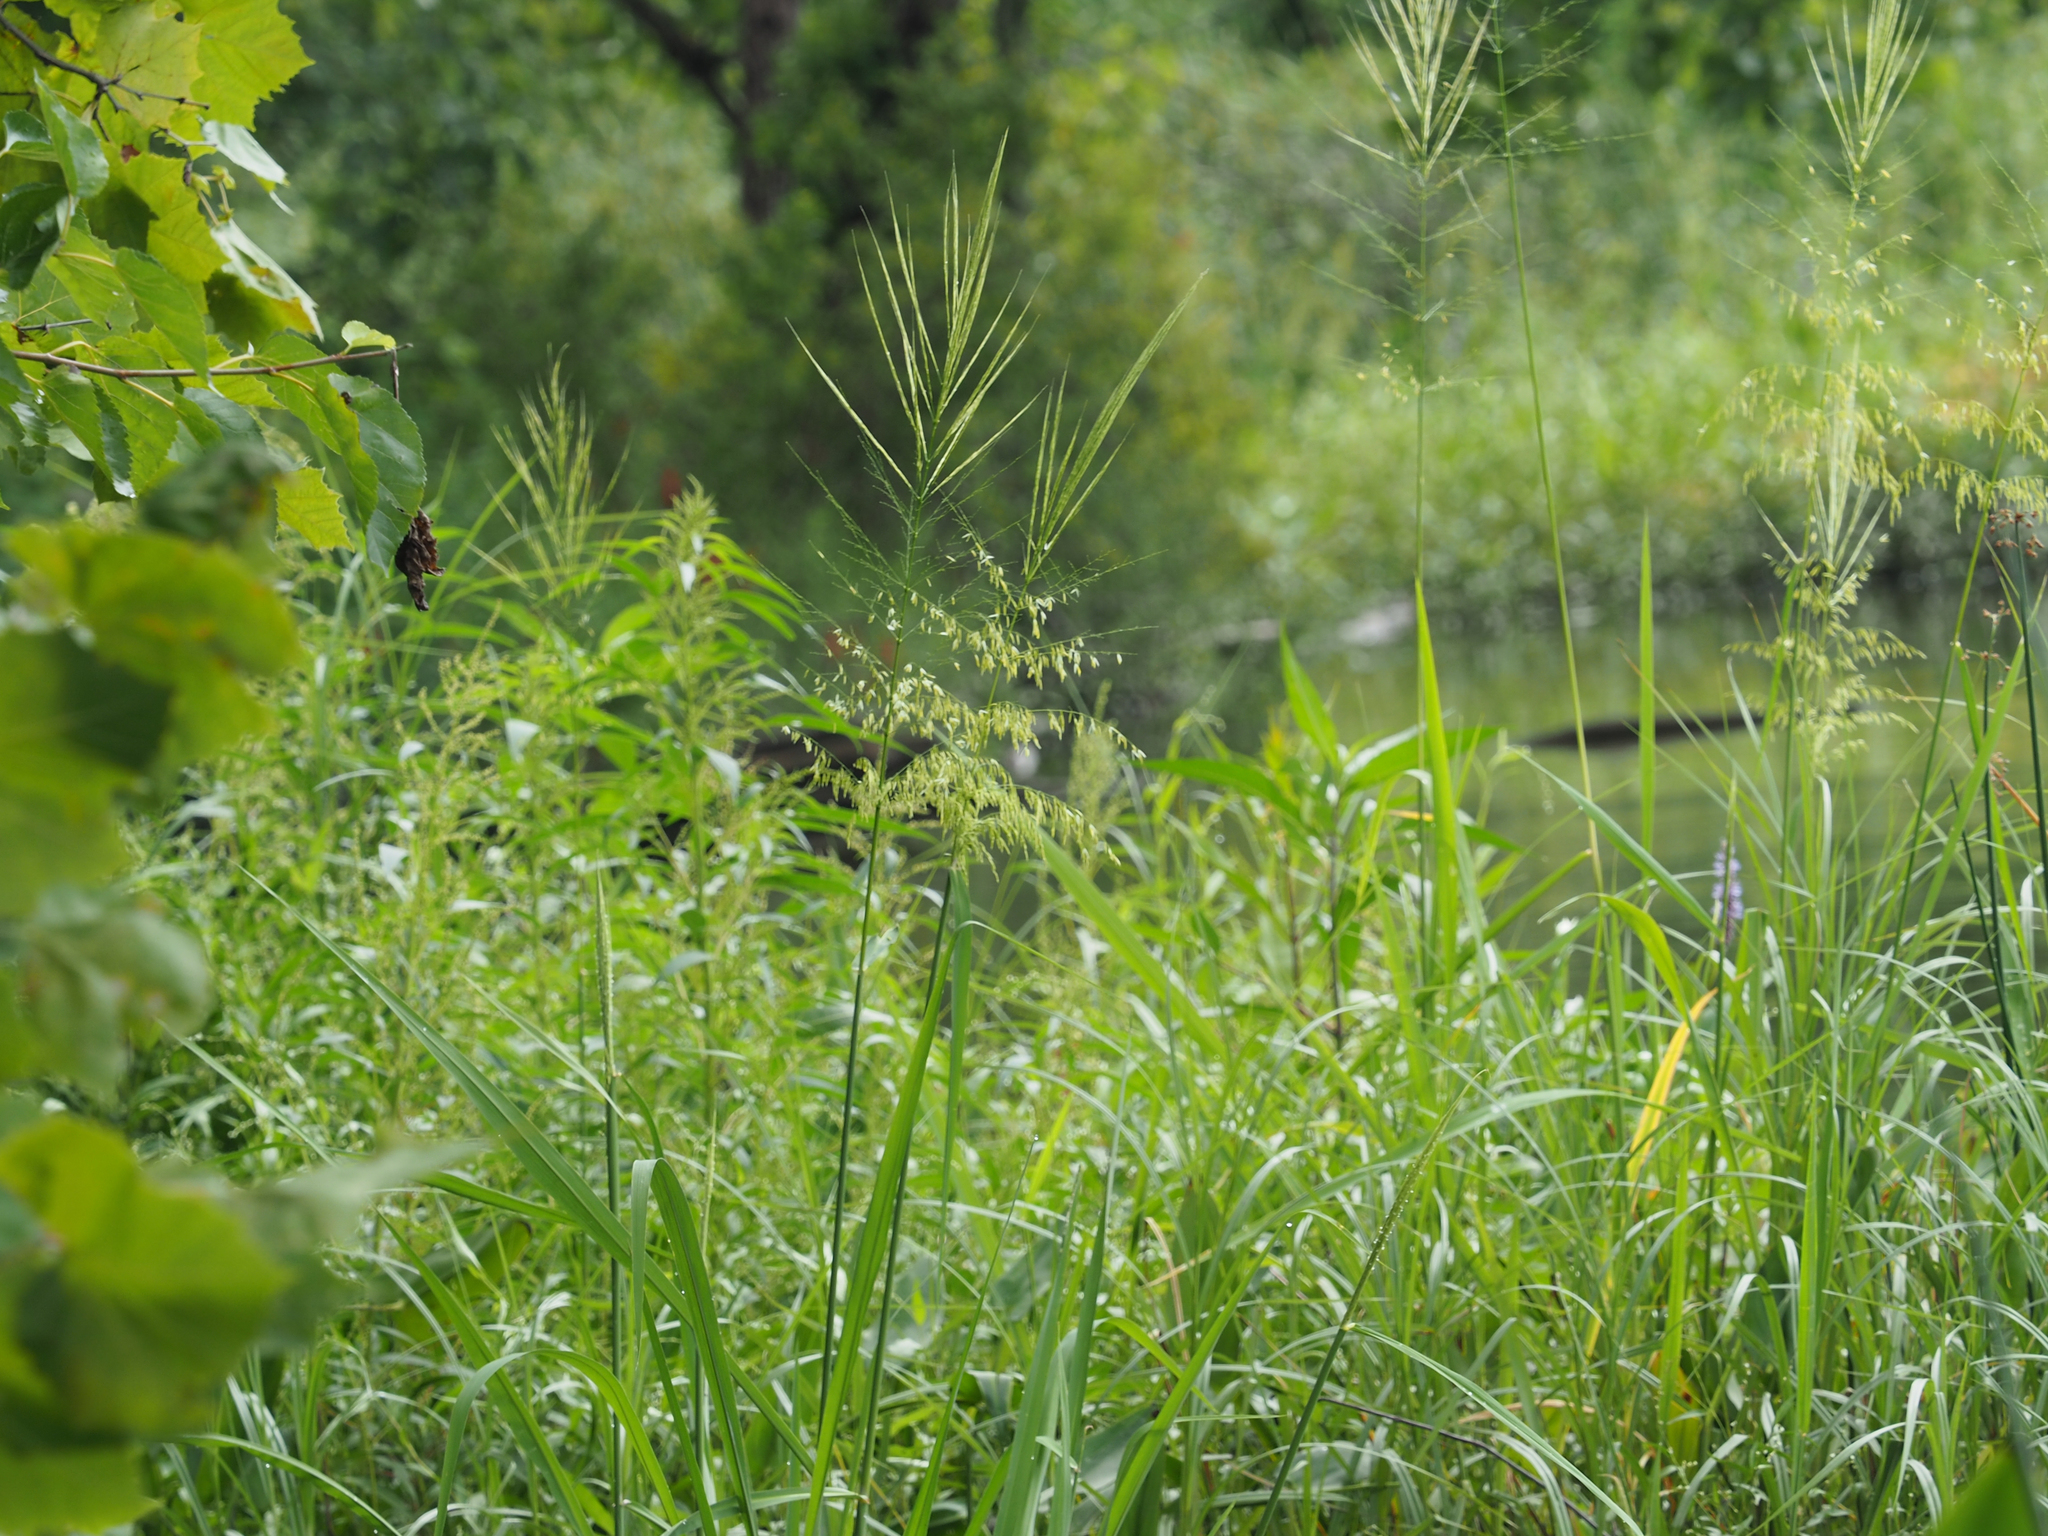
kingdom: Plantae
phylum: Tracheophyta
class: Liliopsida
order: Poales
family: Poaceae
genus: Zizania
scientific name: Zizania aquatica
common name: Annual wildrice
